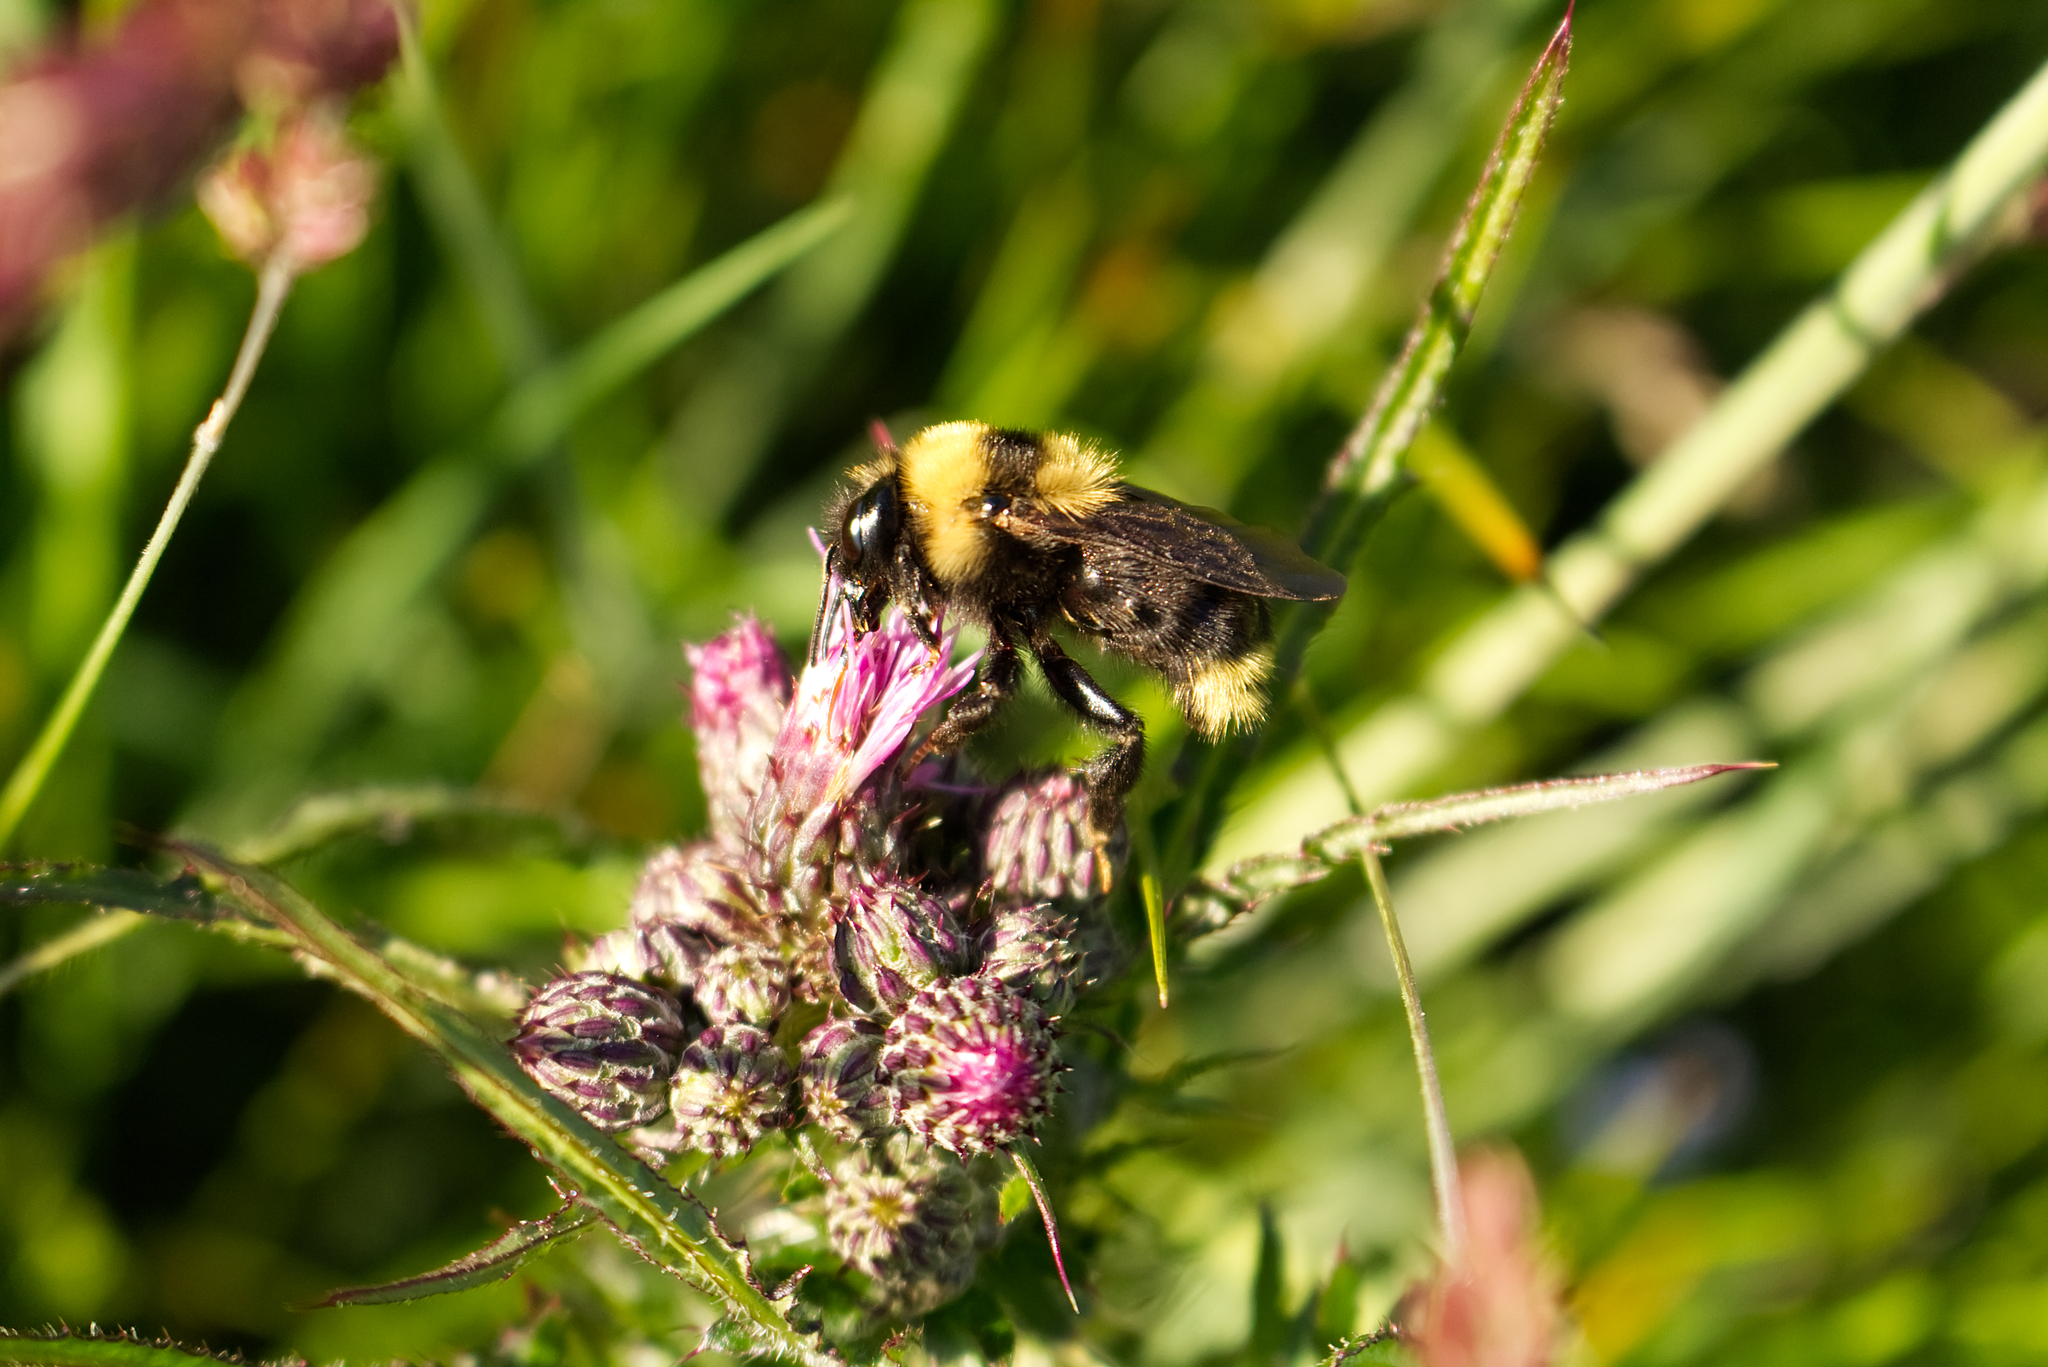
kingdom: Animalia
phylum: Arthropoda
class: Insecta
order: Hymenoptera
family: Apidae
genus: Bombus
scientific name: Bombus campestris
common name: Field cuckoo-bee
